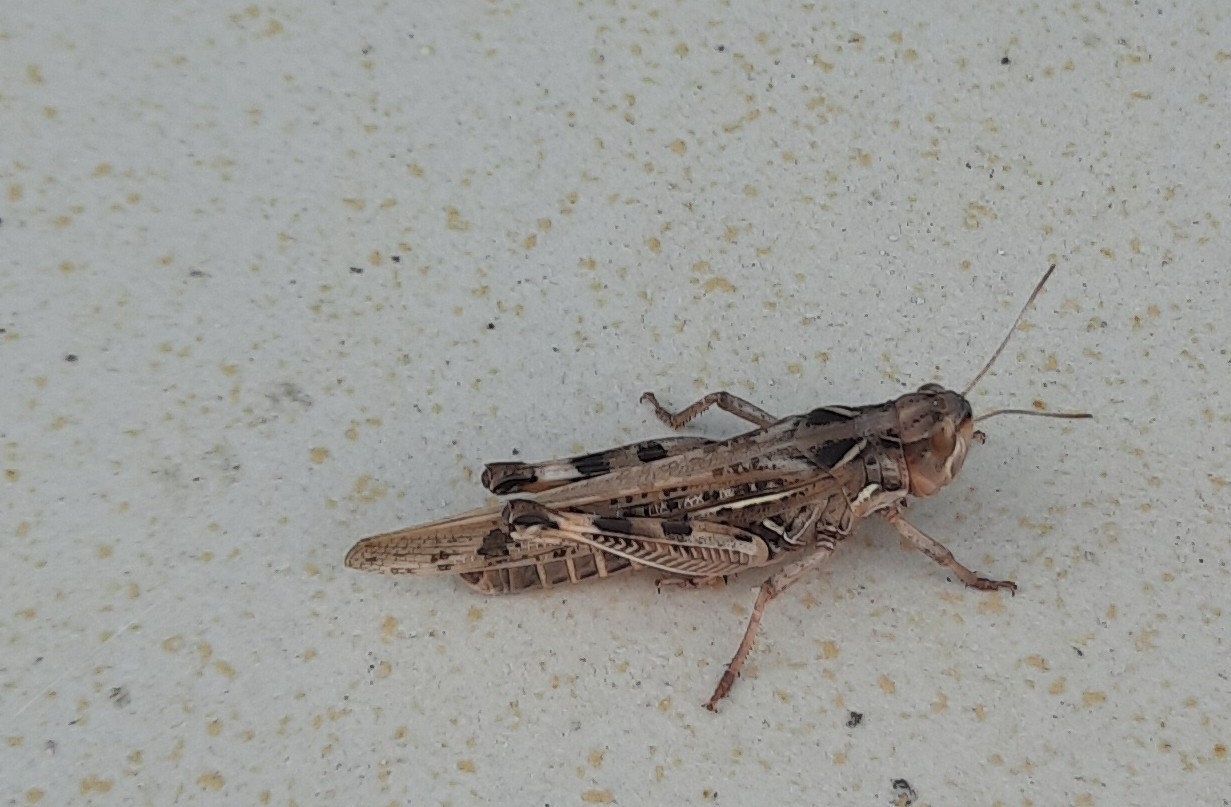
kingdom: Animalia
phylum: Arthropoda
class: Insecta
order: Orthoptera
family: Acrididae
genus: Dociostaurus
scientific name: Dociostaurus maroccanus
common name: Moroccan locust
